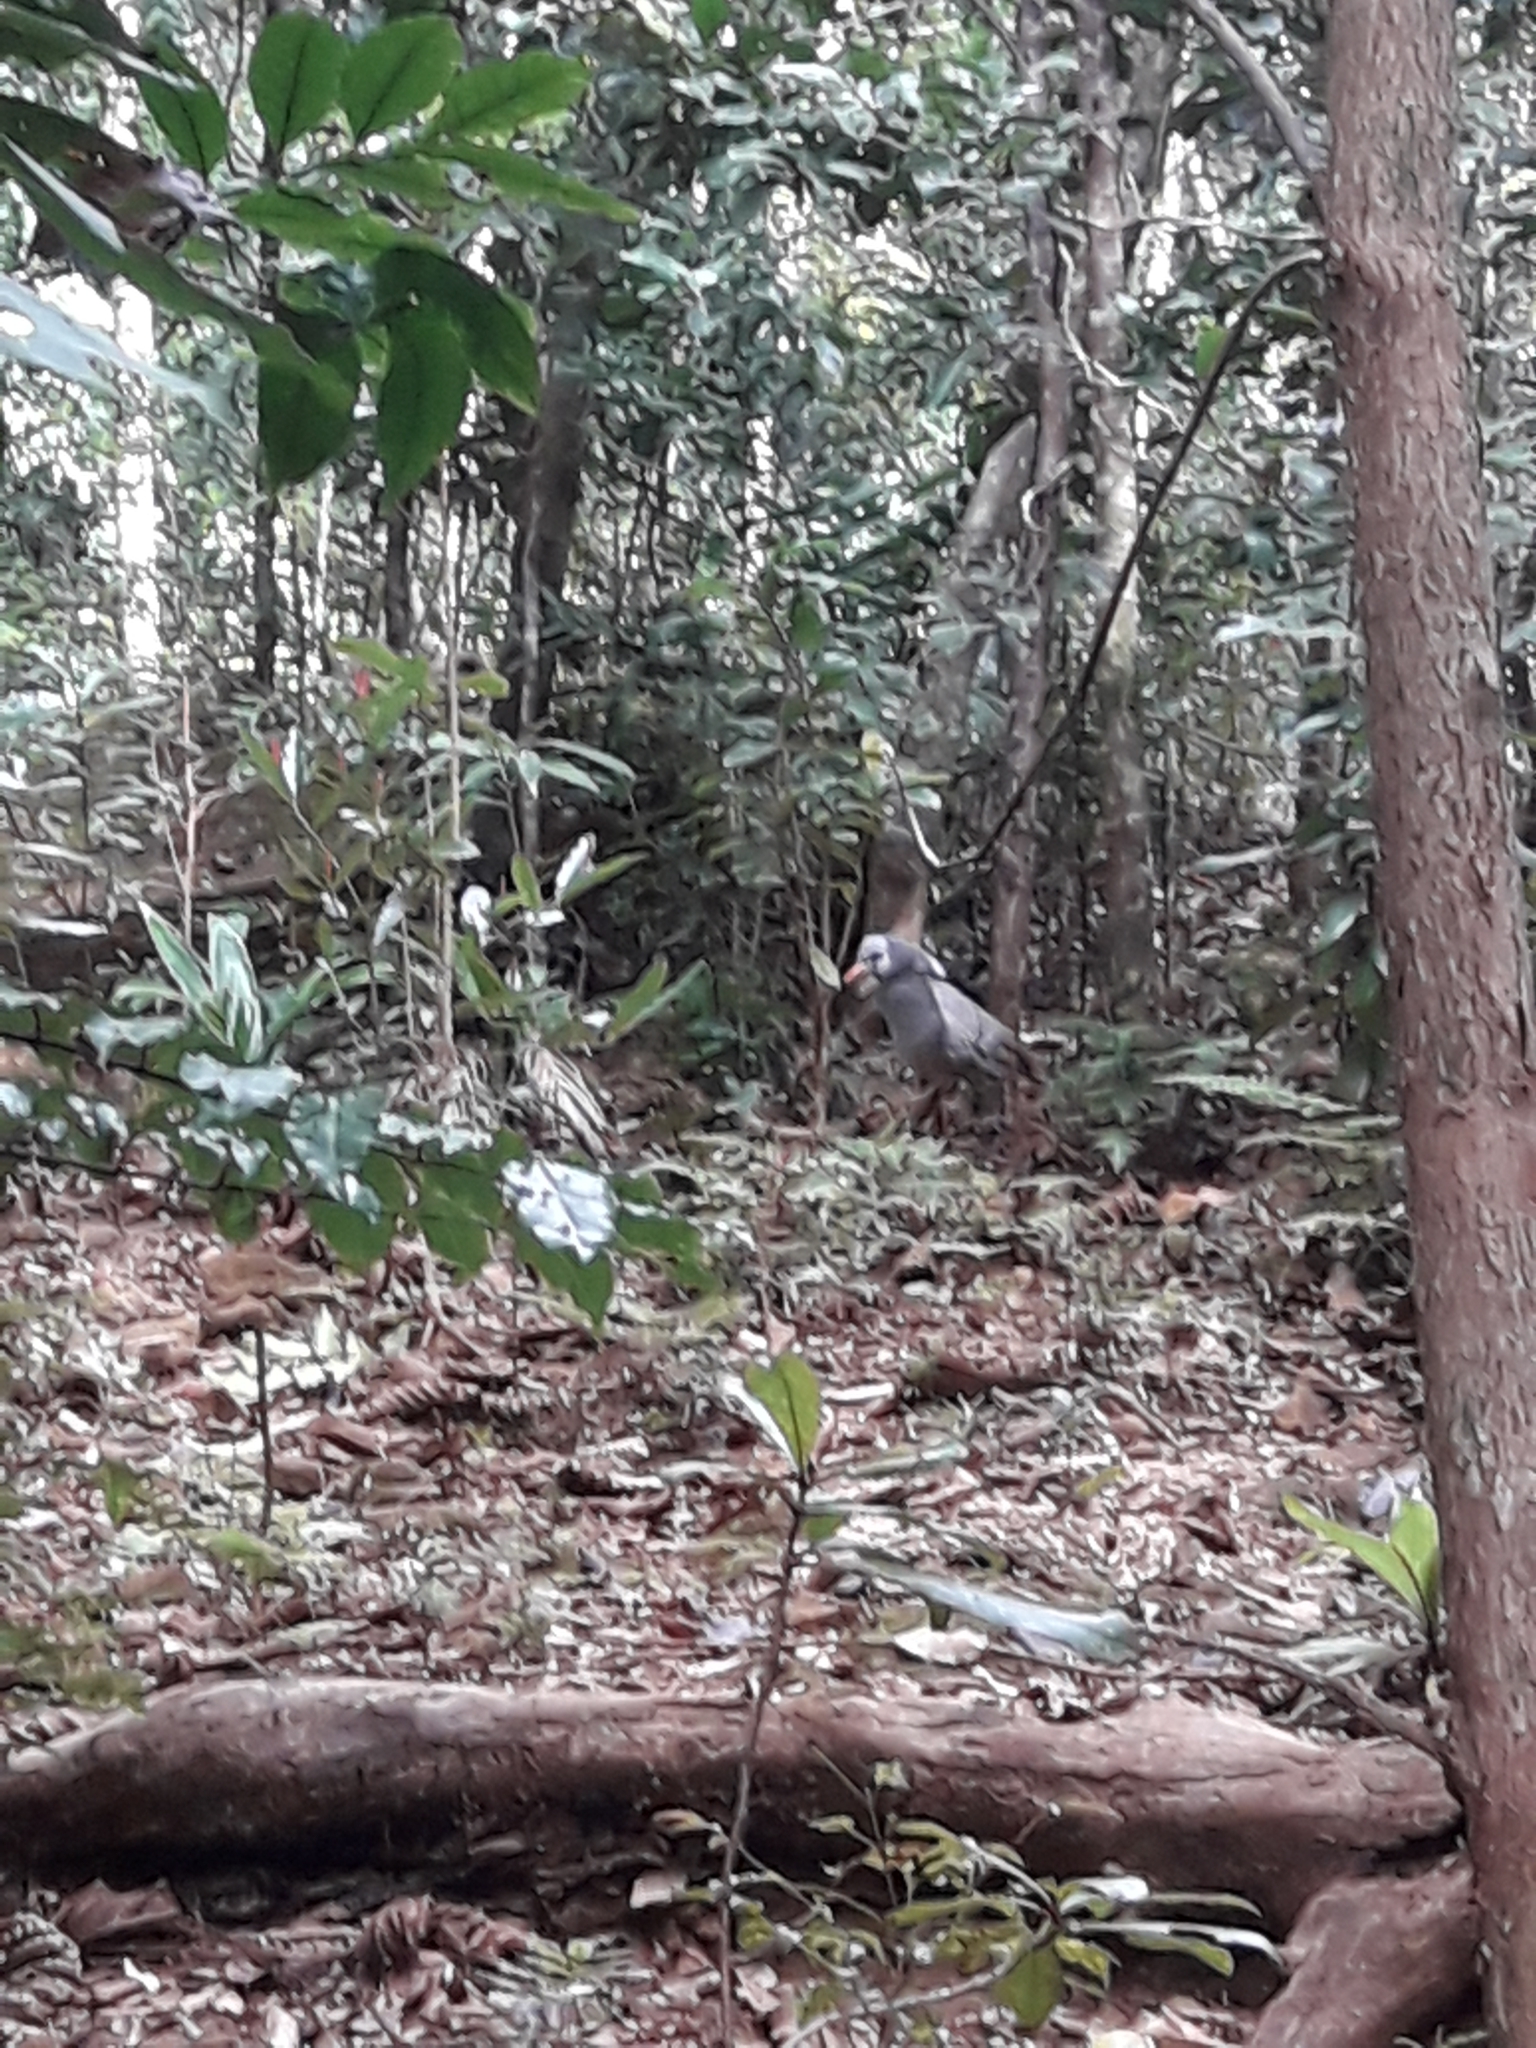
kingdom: Animalia
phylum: Chordata
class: Aves
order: Eurypygiformes
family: Rhynochetidae
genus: Rhynochetos
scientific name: Rhynochetos jubatus
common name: Kagu
